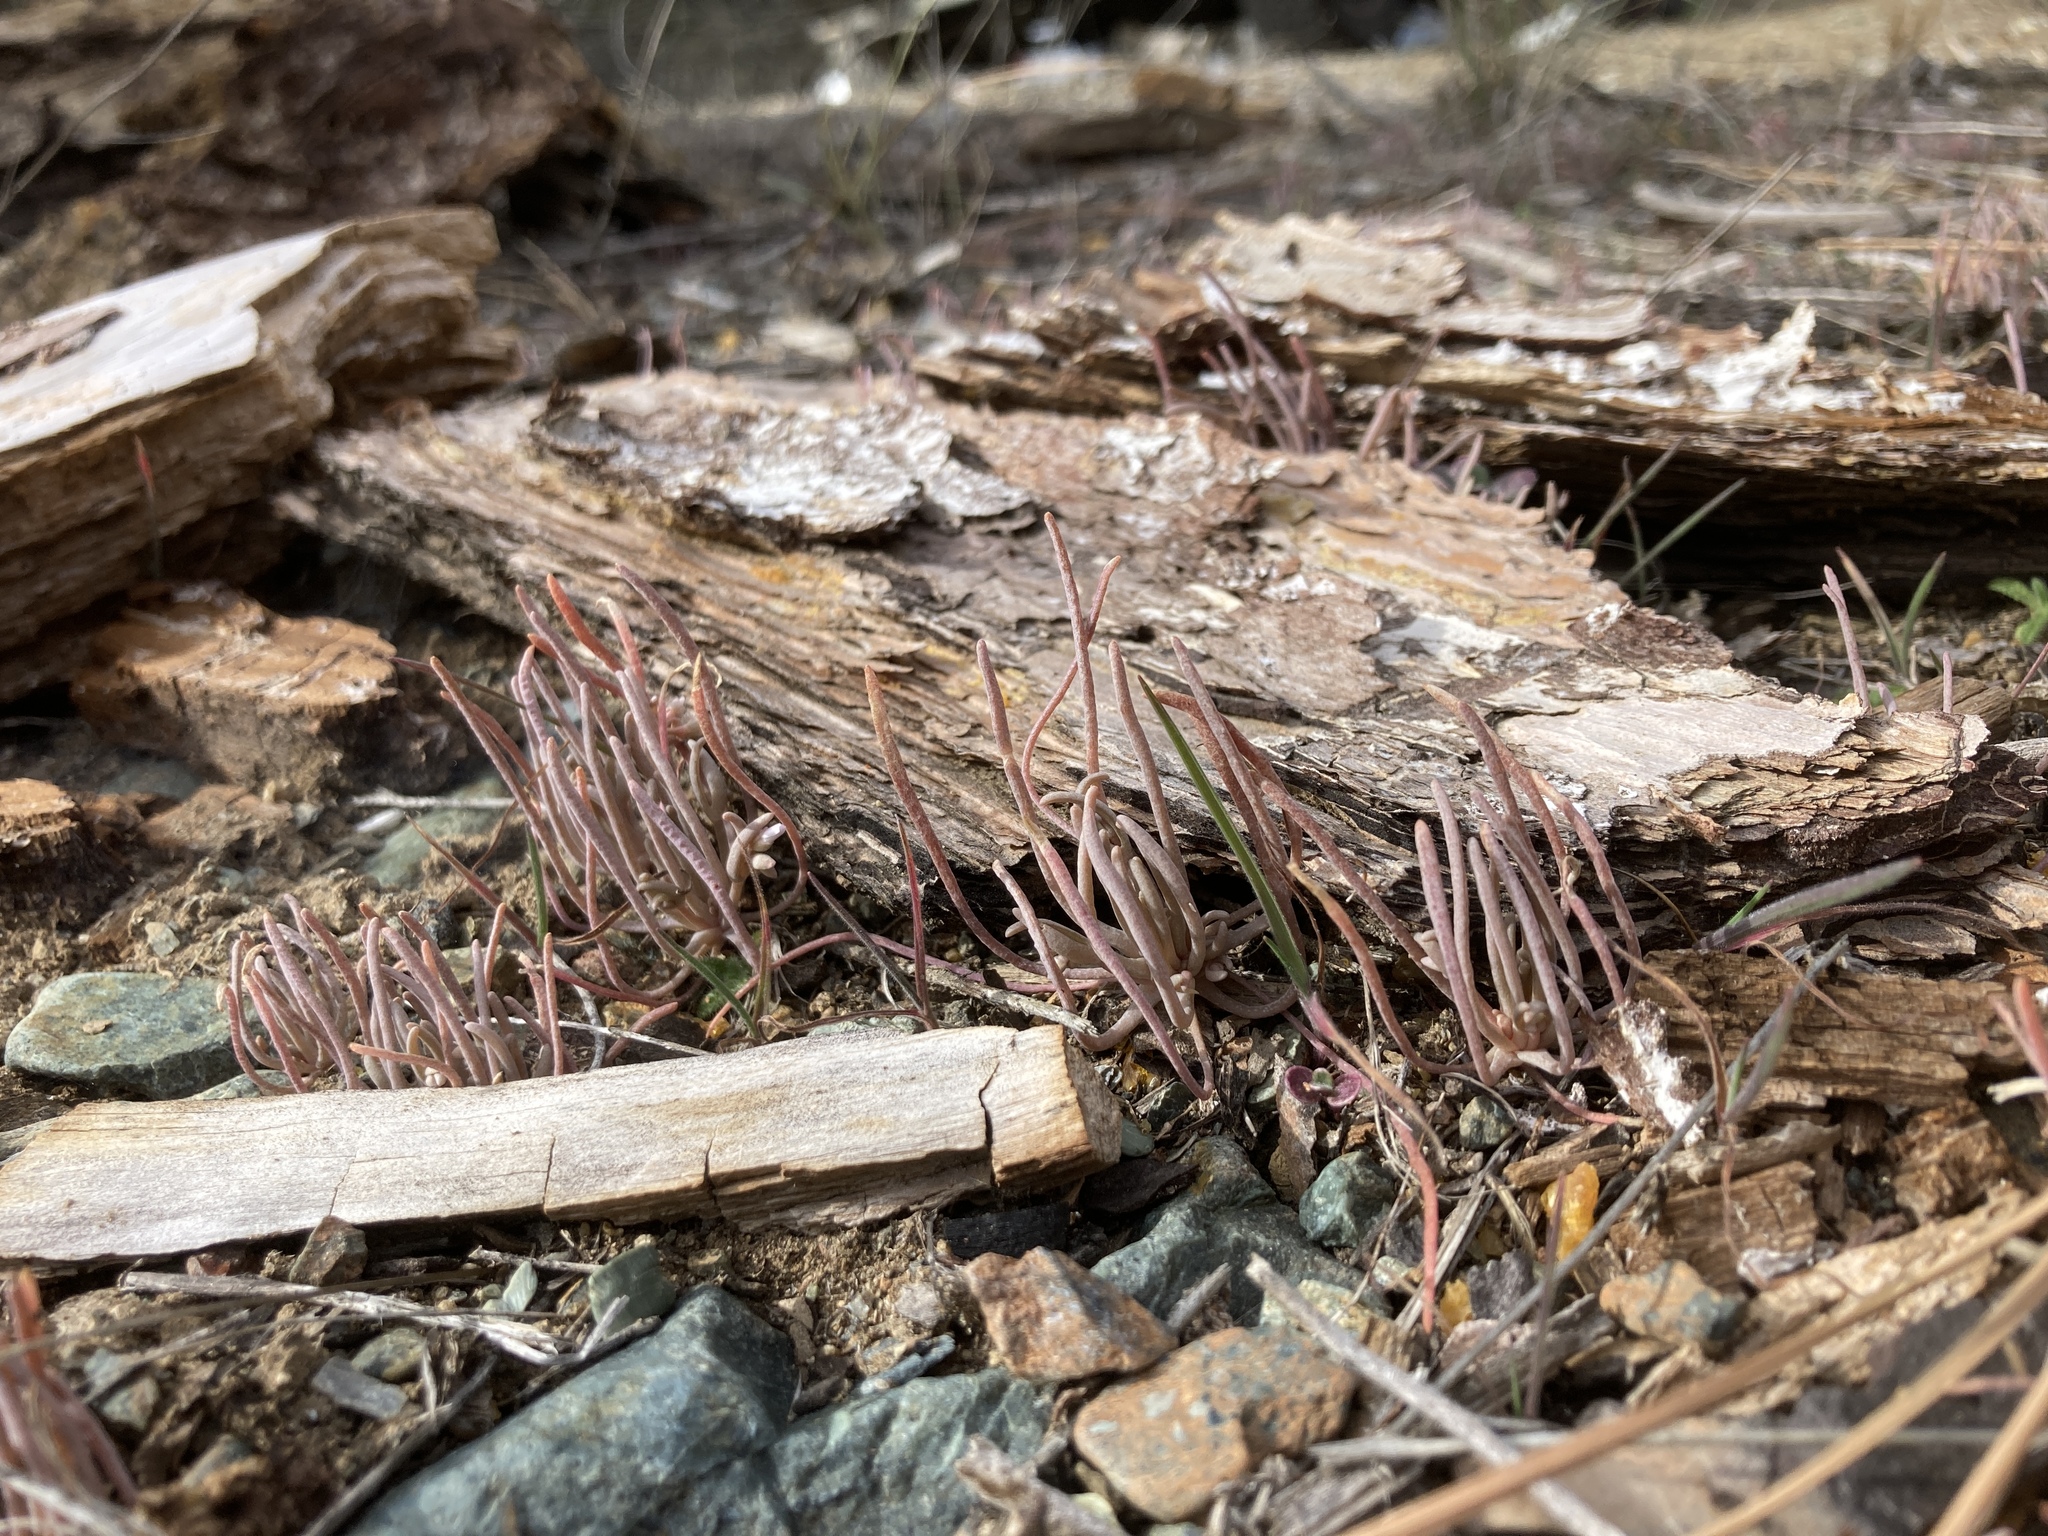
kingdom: Plantae
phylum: Tracheophyta
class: Magnoliopsida
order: Caryophyllales
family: Montiaceae
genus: Claytonia
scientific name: Claytonia exigua
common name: Pale spring beauty
